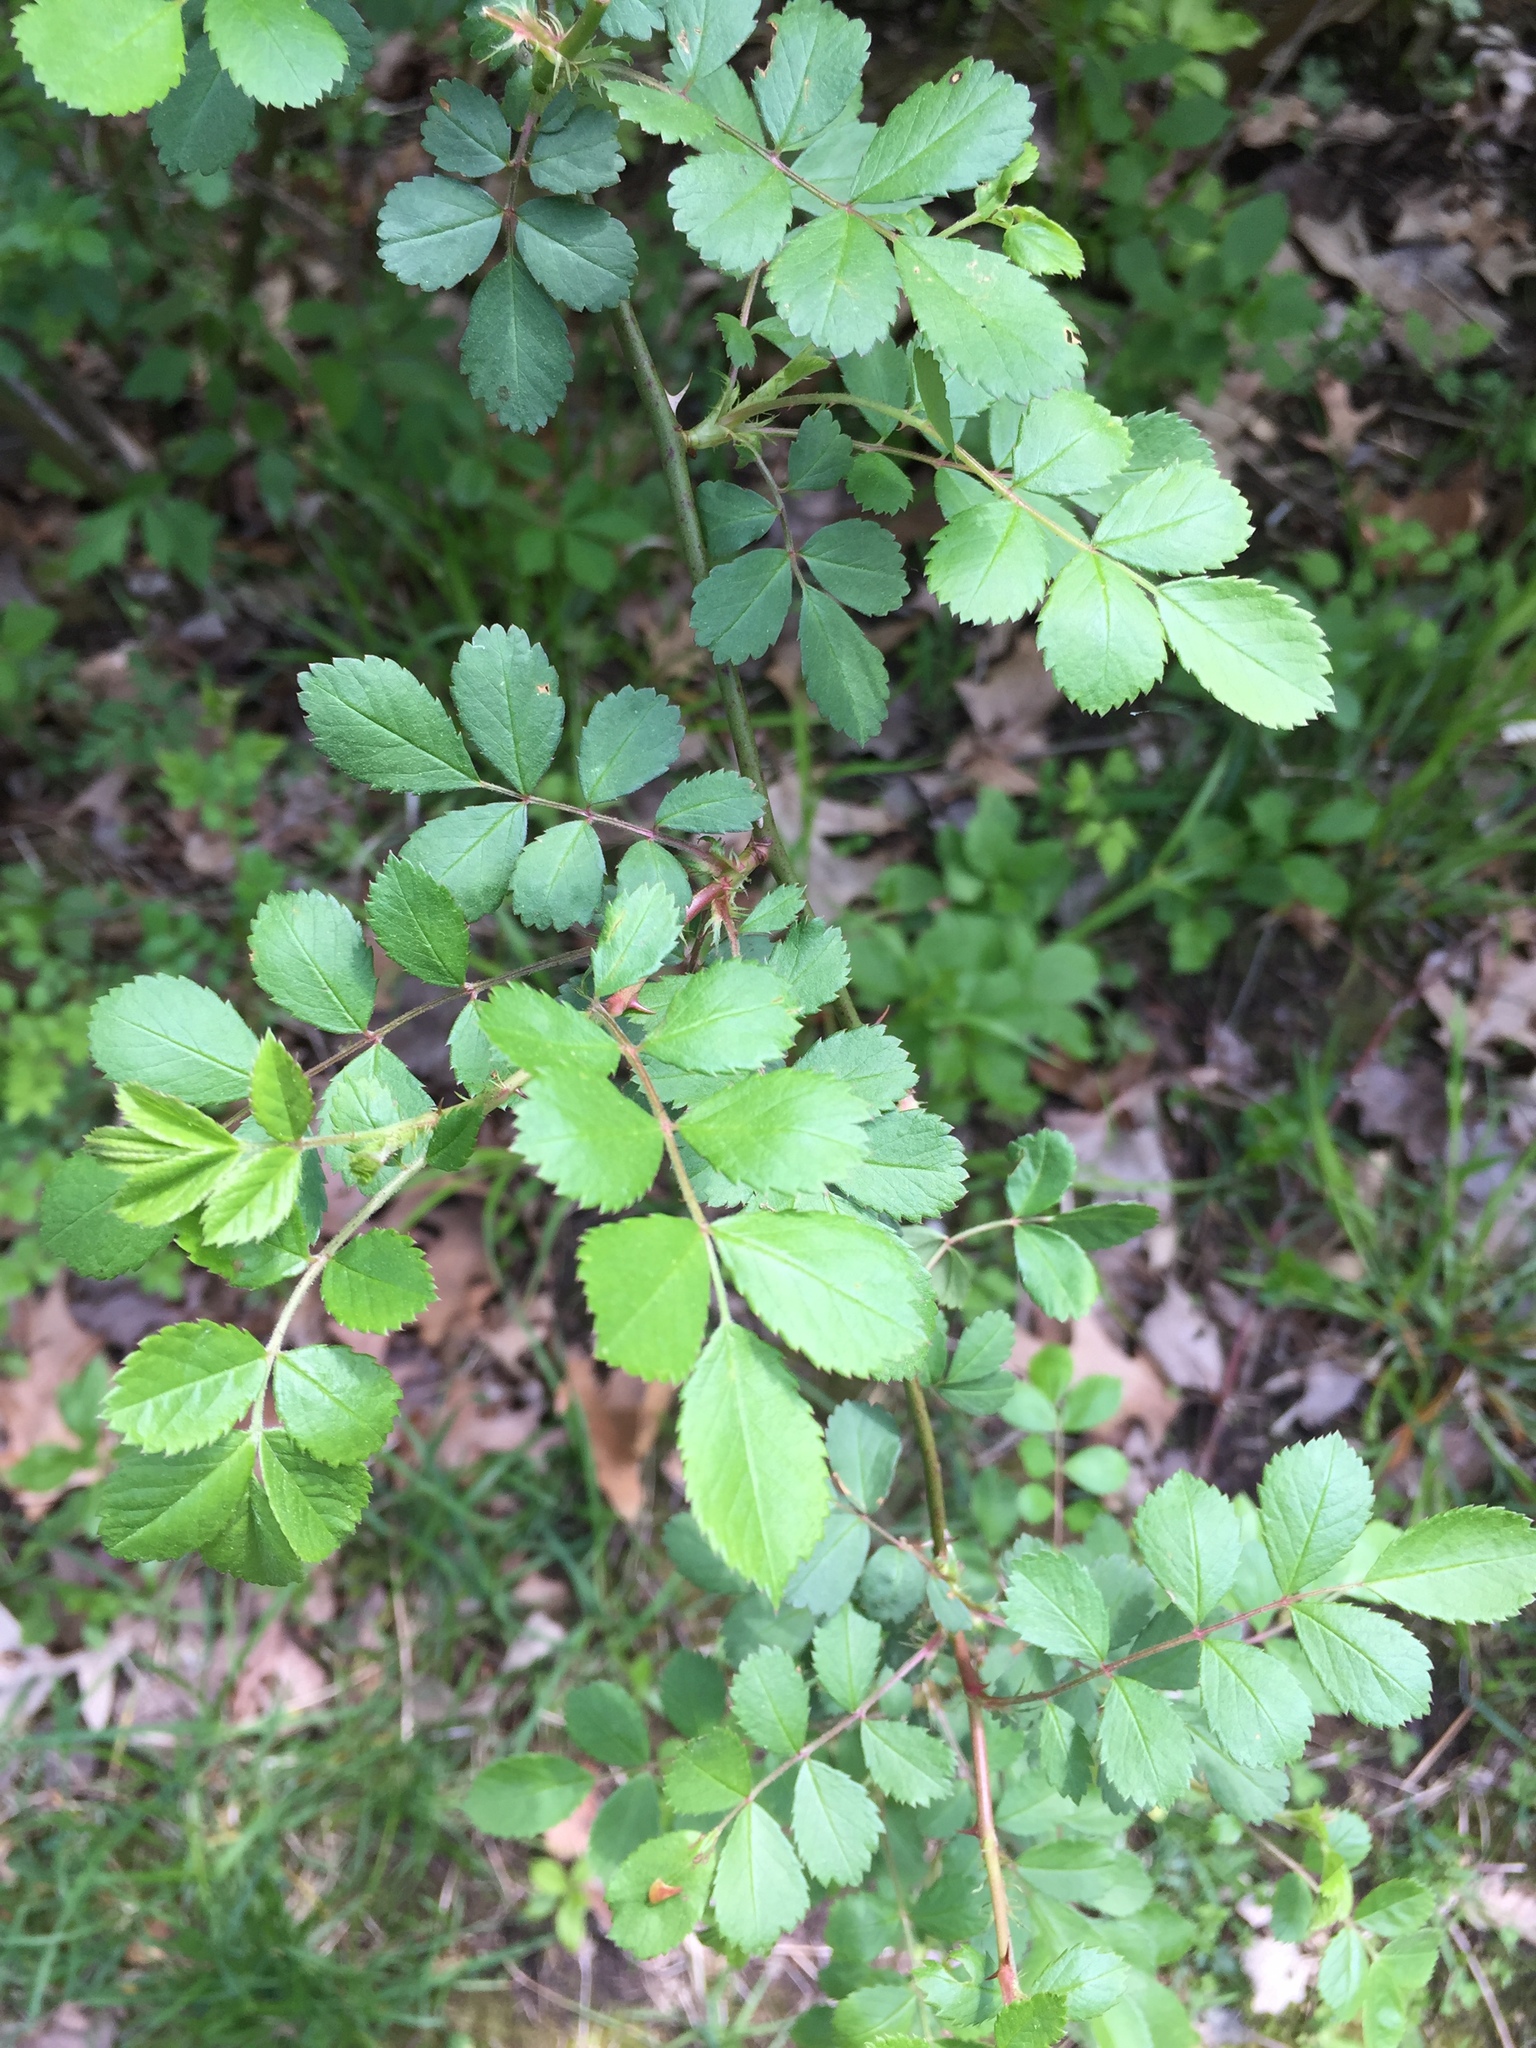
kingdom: Plantae
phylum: Tracheophyta
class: Magnoliopsida
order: Rosales
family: Rosaceae
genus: Rosa
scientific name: Rosa multiflora
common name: Multiflora rose
